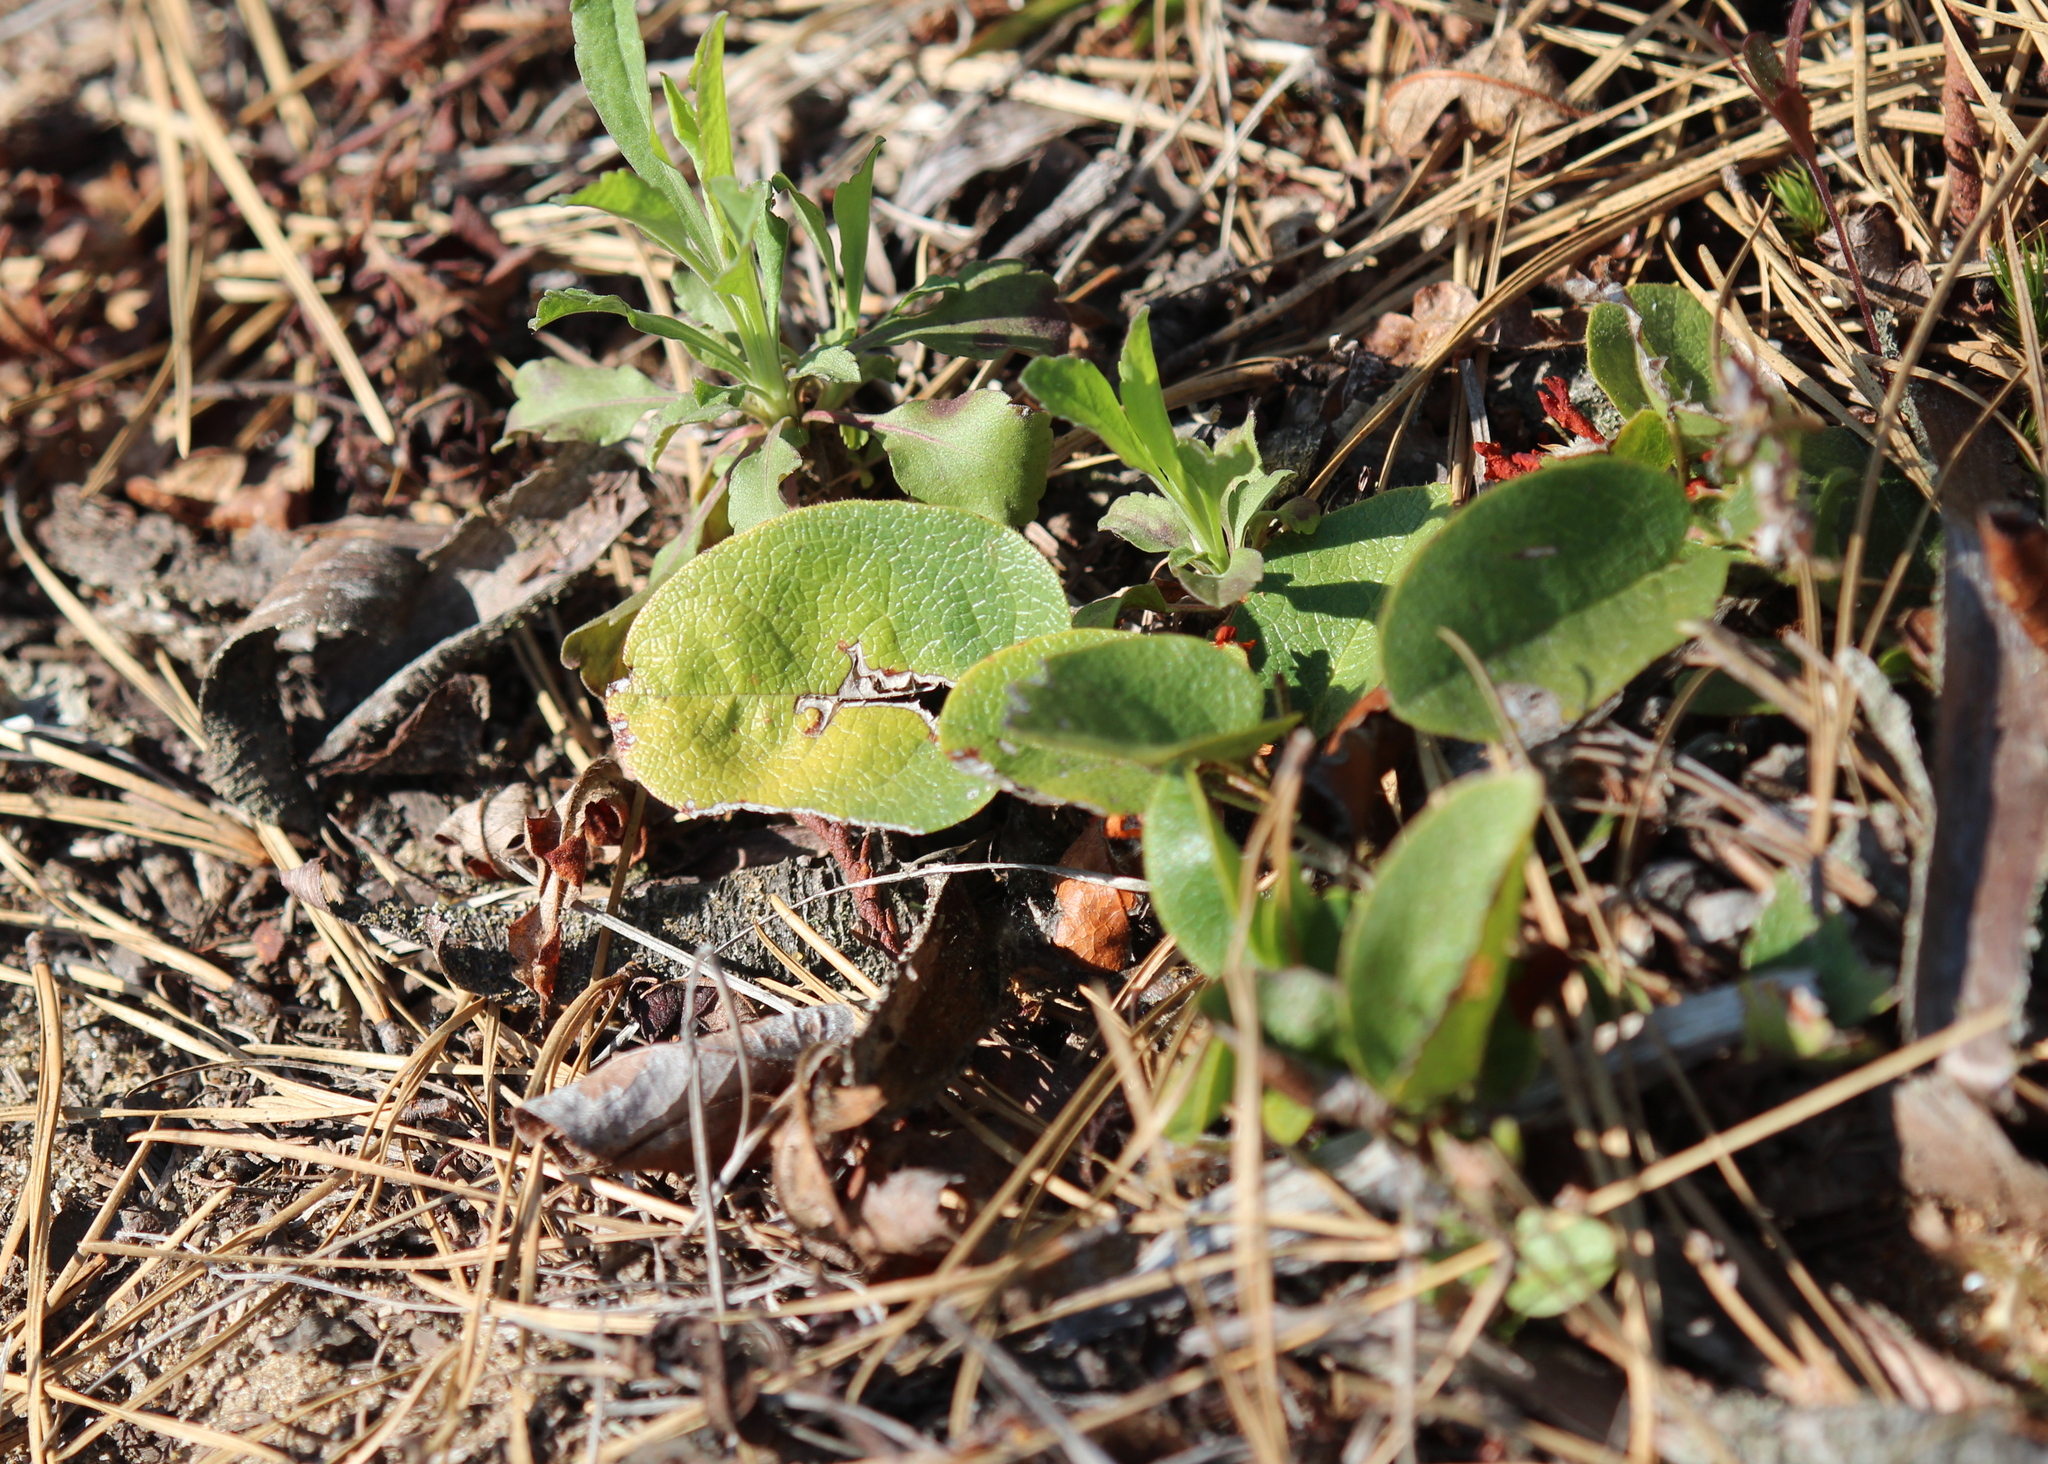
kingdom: Plantae
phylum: Tracheophyta
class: Magnoliopsida
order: Ericales
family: Ericaceae
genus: Epigaea
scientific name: Epigaea repens
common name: Gravelroot
